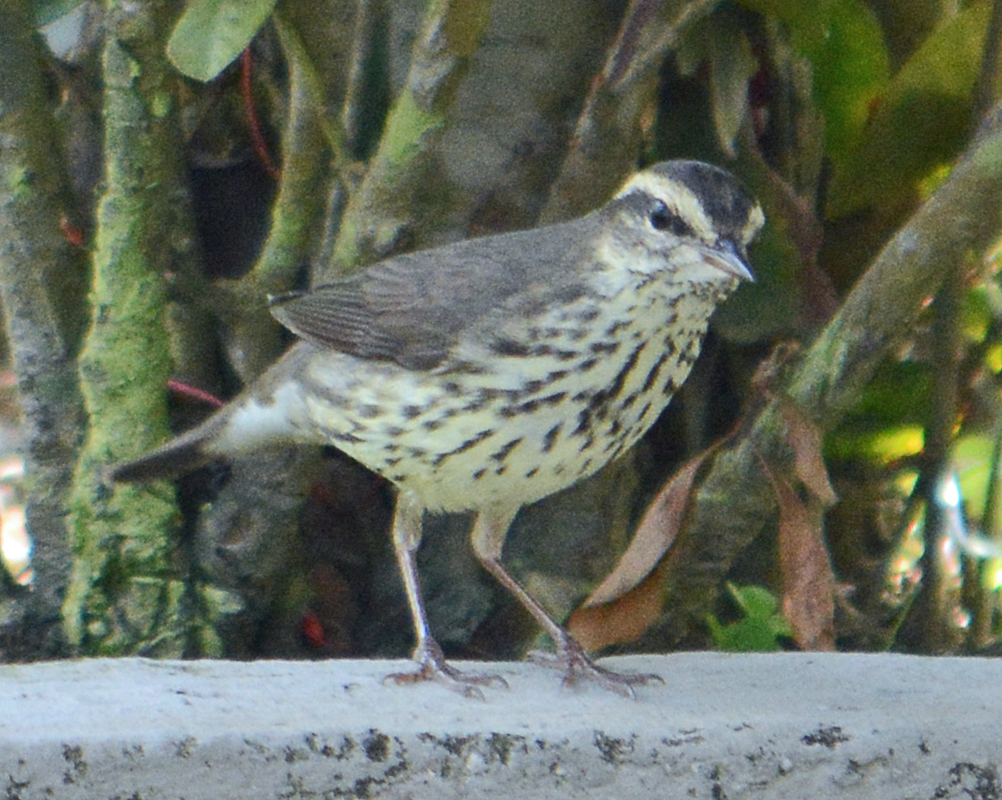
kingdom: Animalia
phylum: Chordata
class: Aves
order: Passeriformes
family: Parulidae
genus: Parkesia
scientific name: Parkesia noveboracensis
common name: Northern waterthrush
